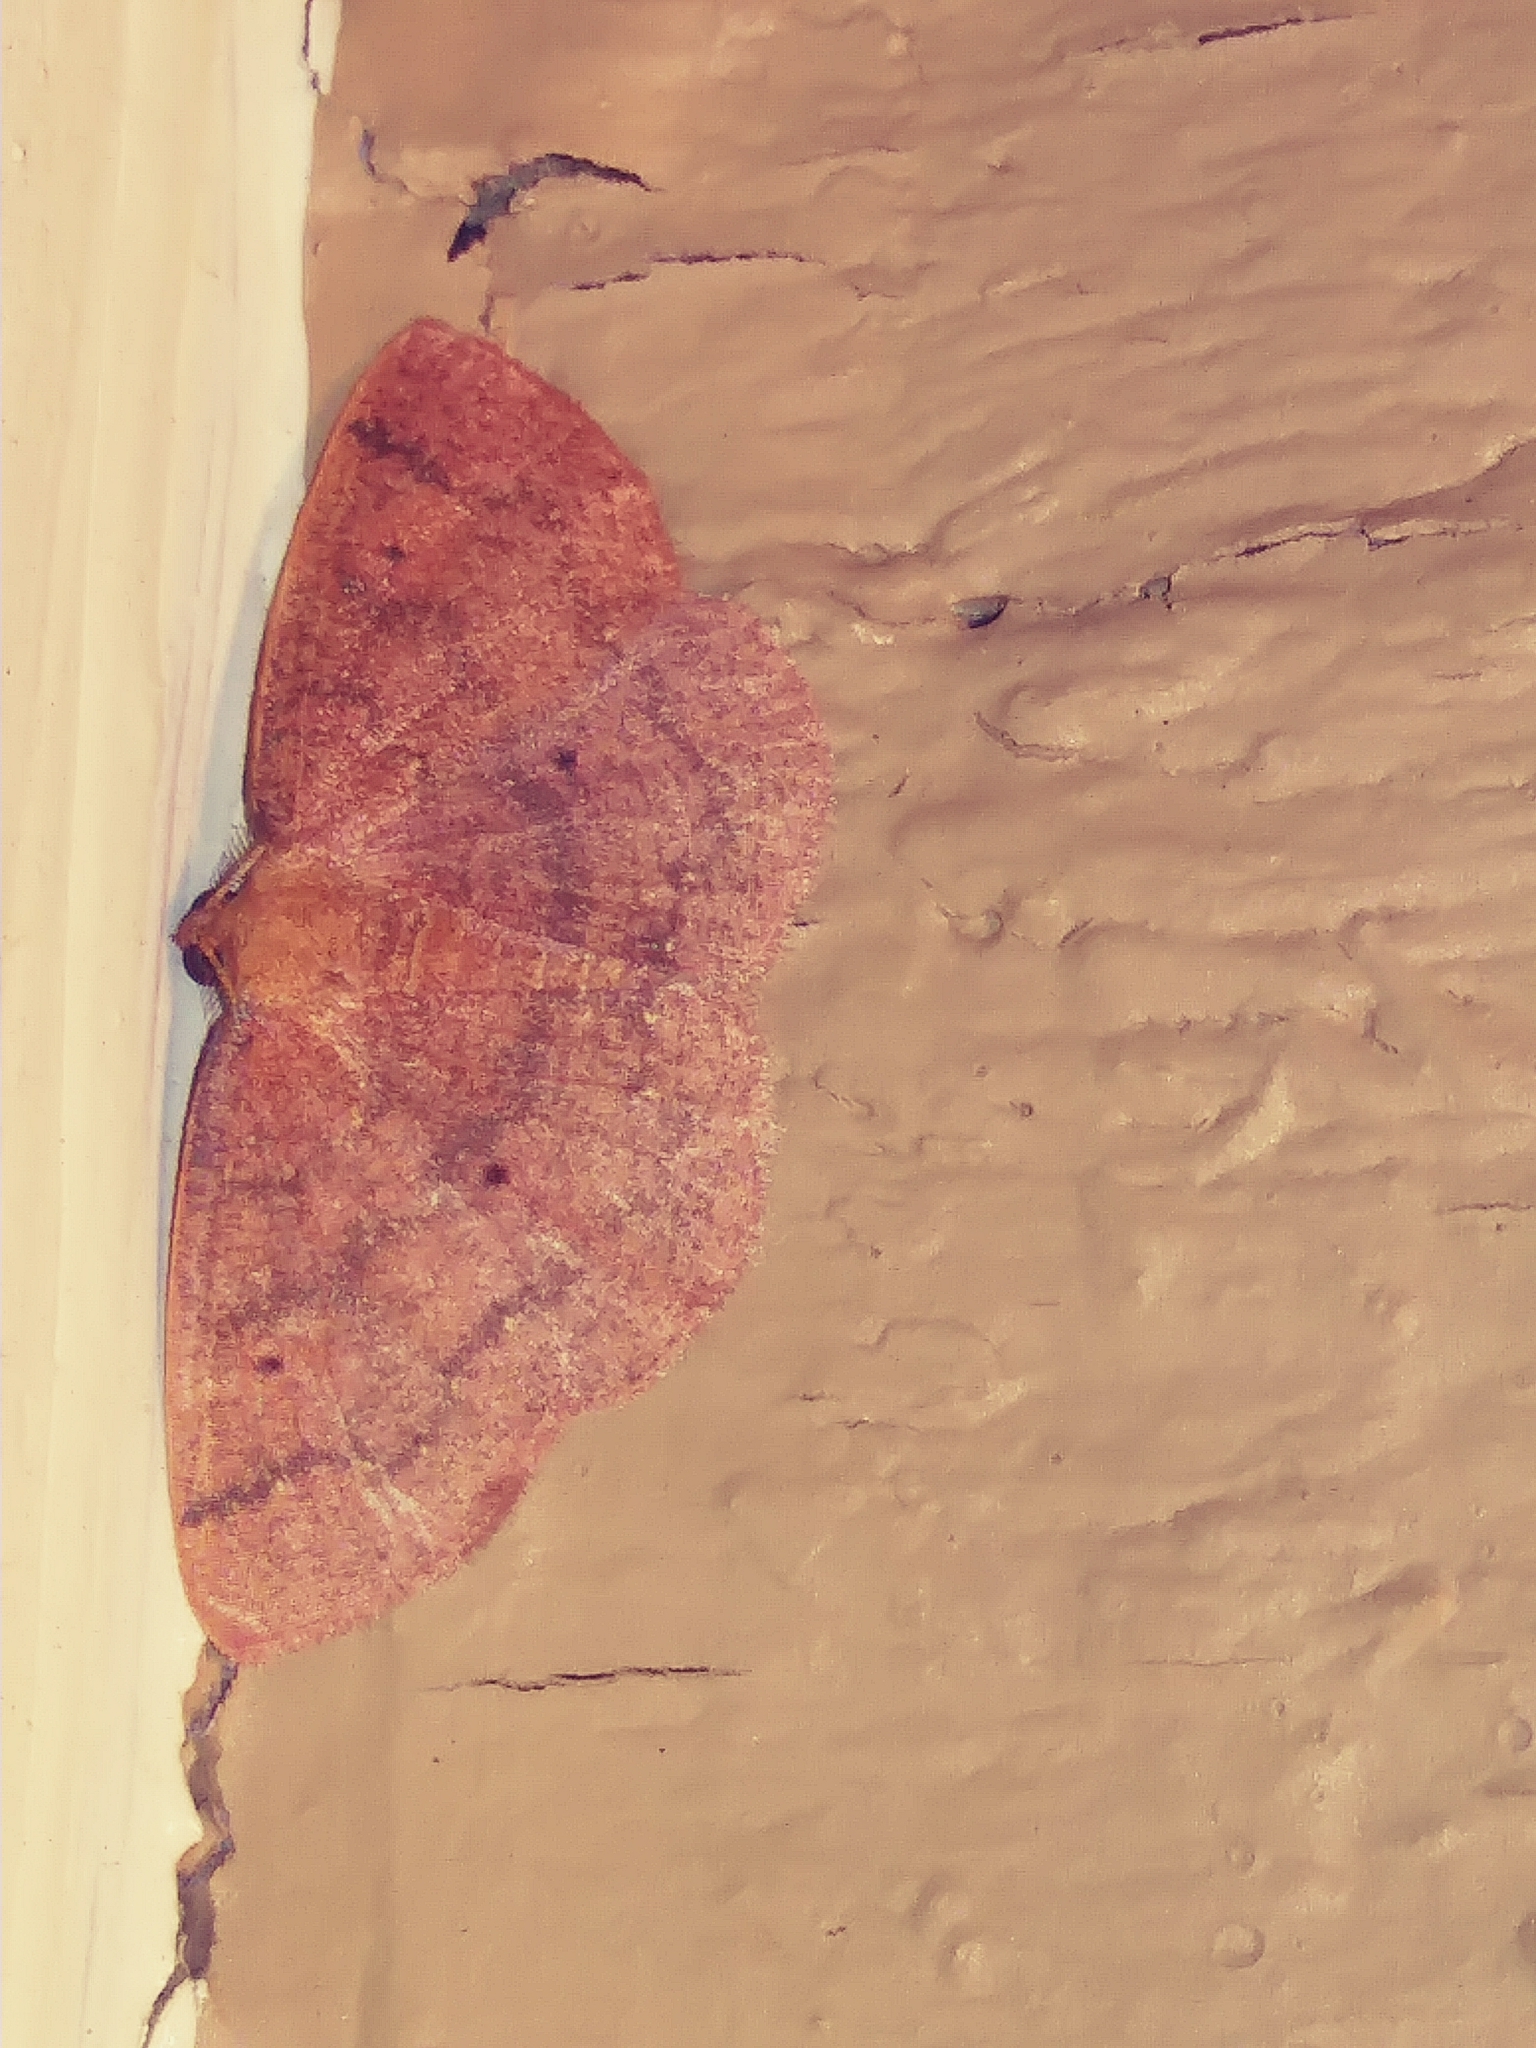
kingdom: Animalia
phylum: Arthropoda
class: Insecta
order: Lepidoptera
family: Geometridae
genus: Ilexia
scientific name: Ilexia intractata
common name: Black-dotted ruddy moth
